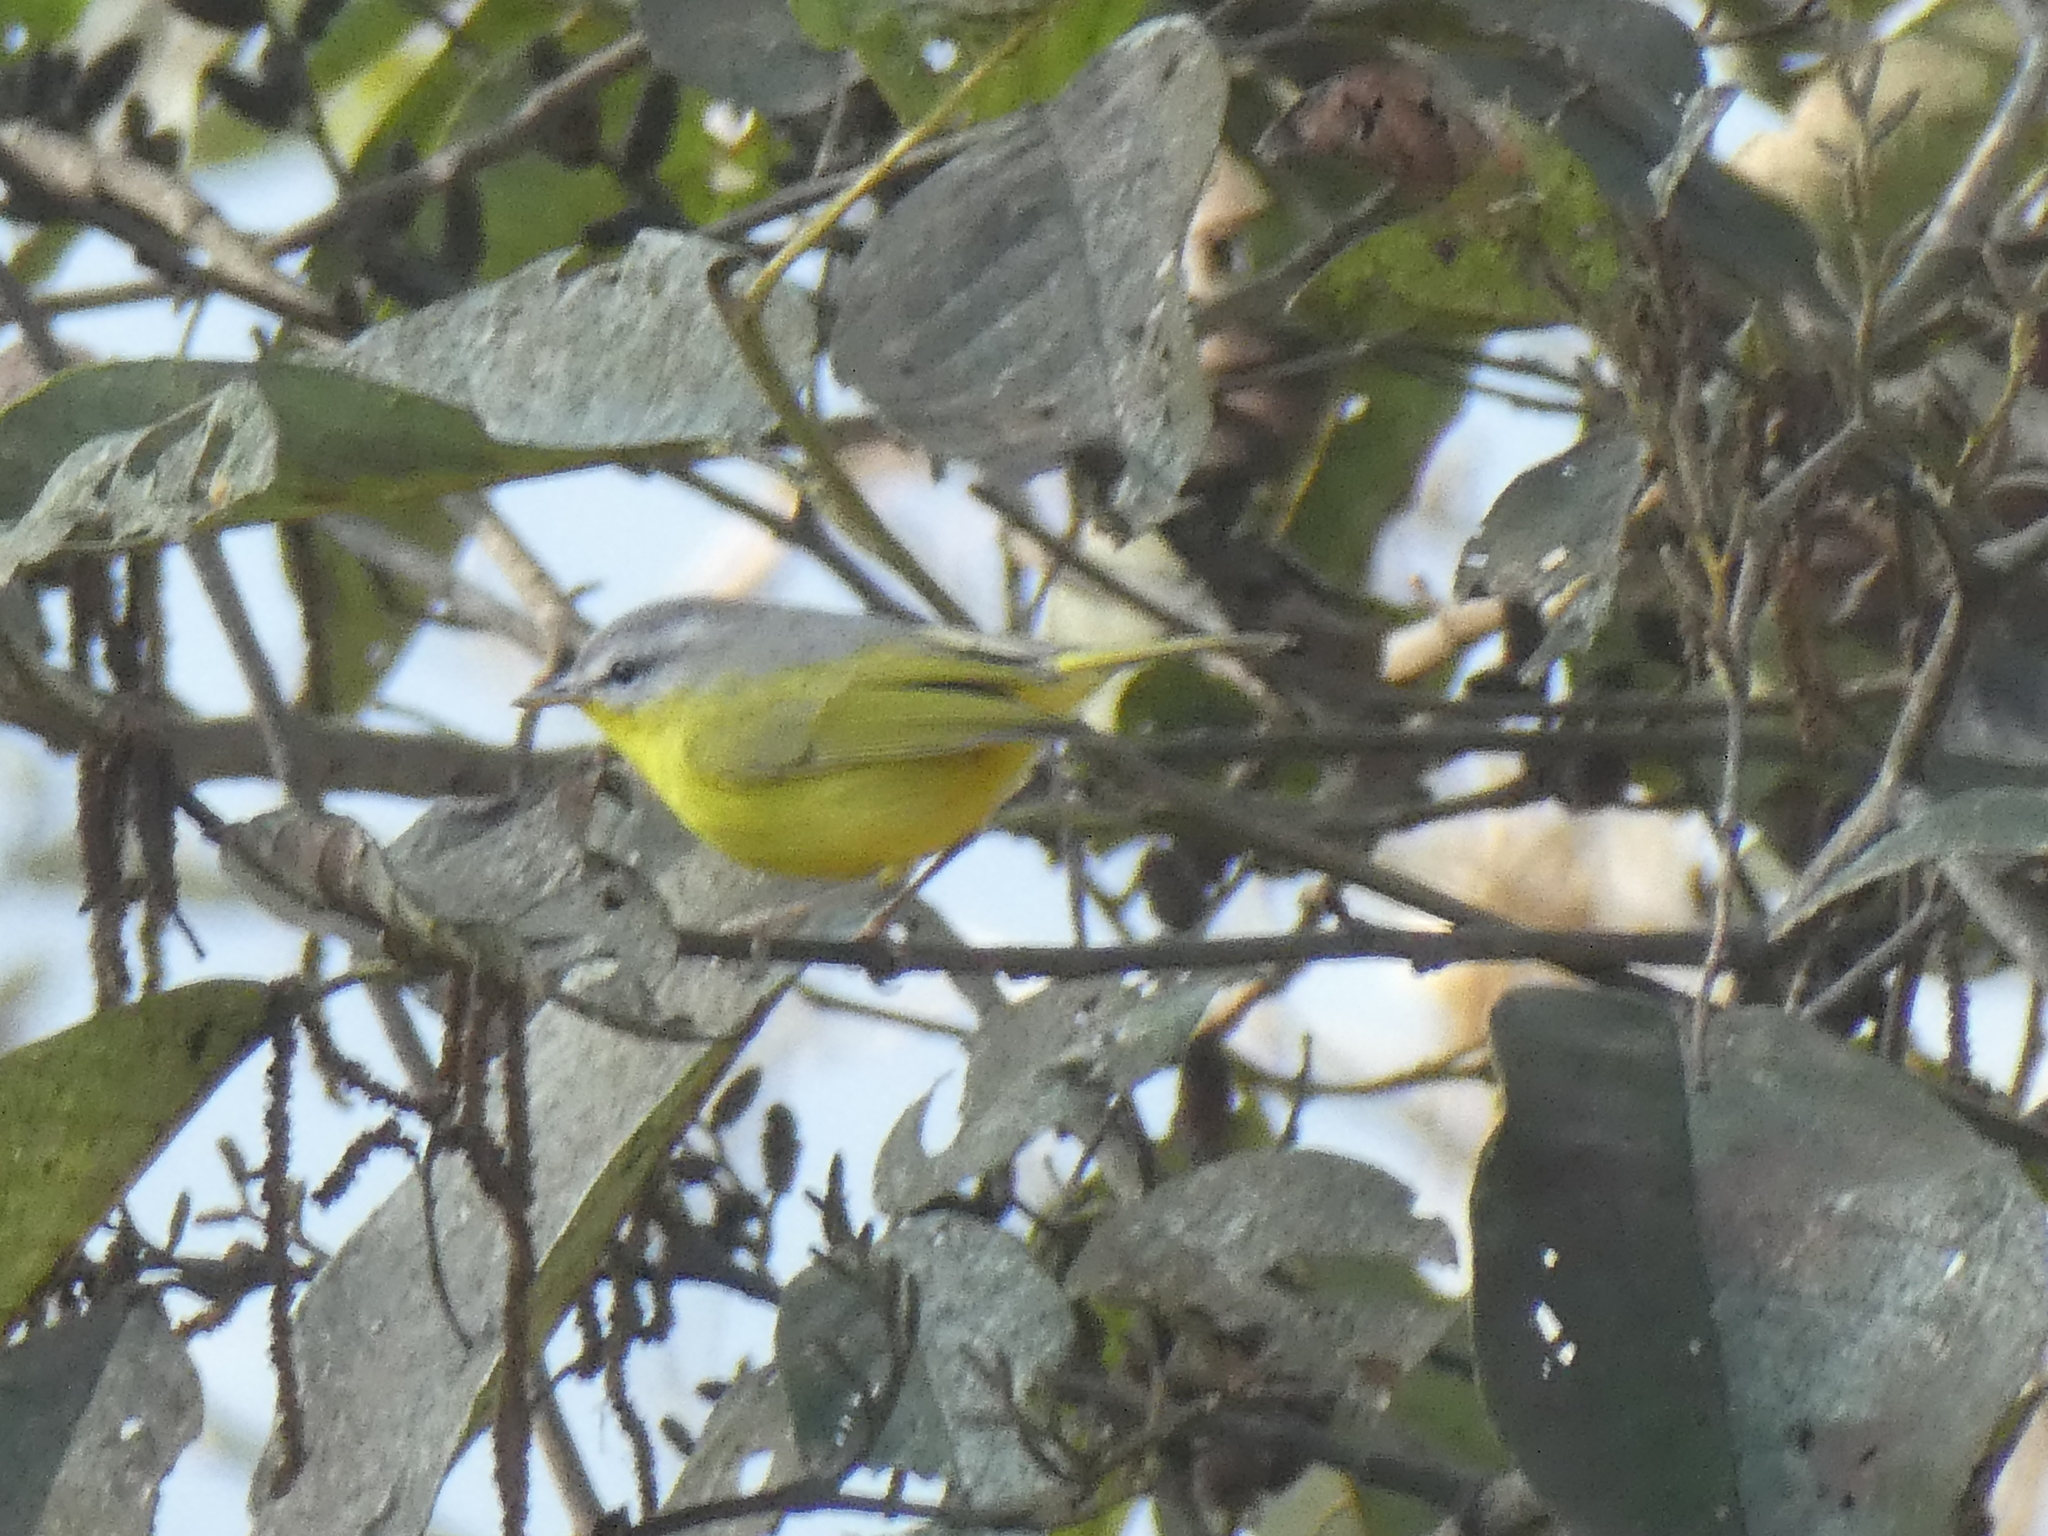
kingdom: Animalia
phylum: Chordata
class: Aves
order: Passeriformes
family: Phylloscopidae
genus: Phylloscopus
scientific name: Phylloscopus xanthoschistos
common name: Grey-hooded warbler
